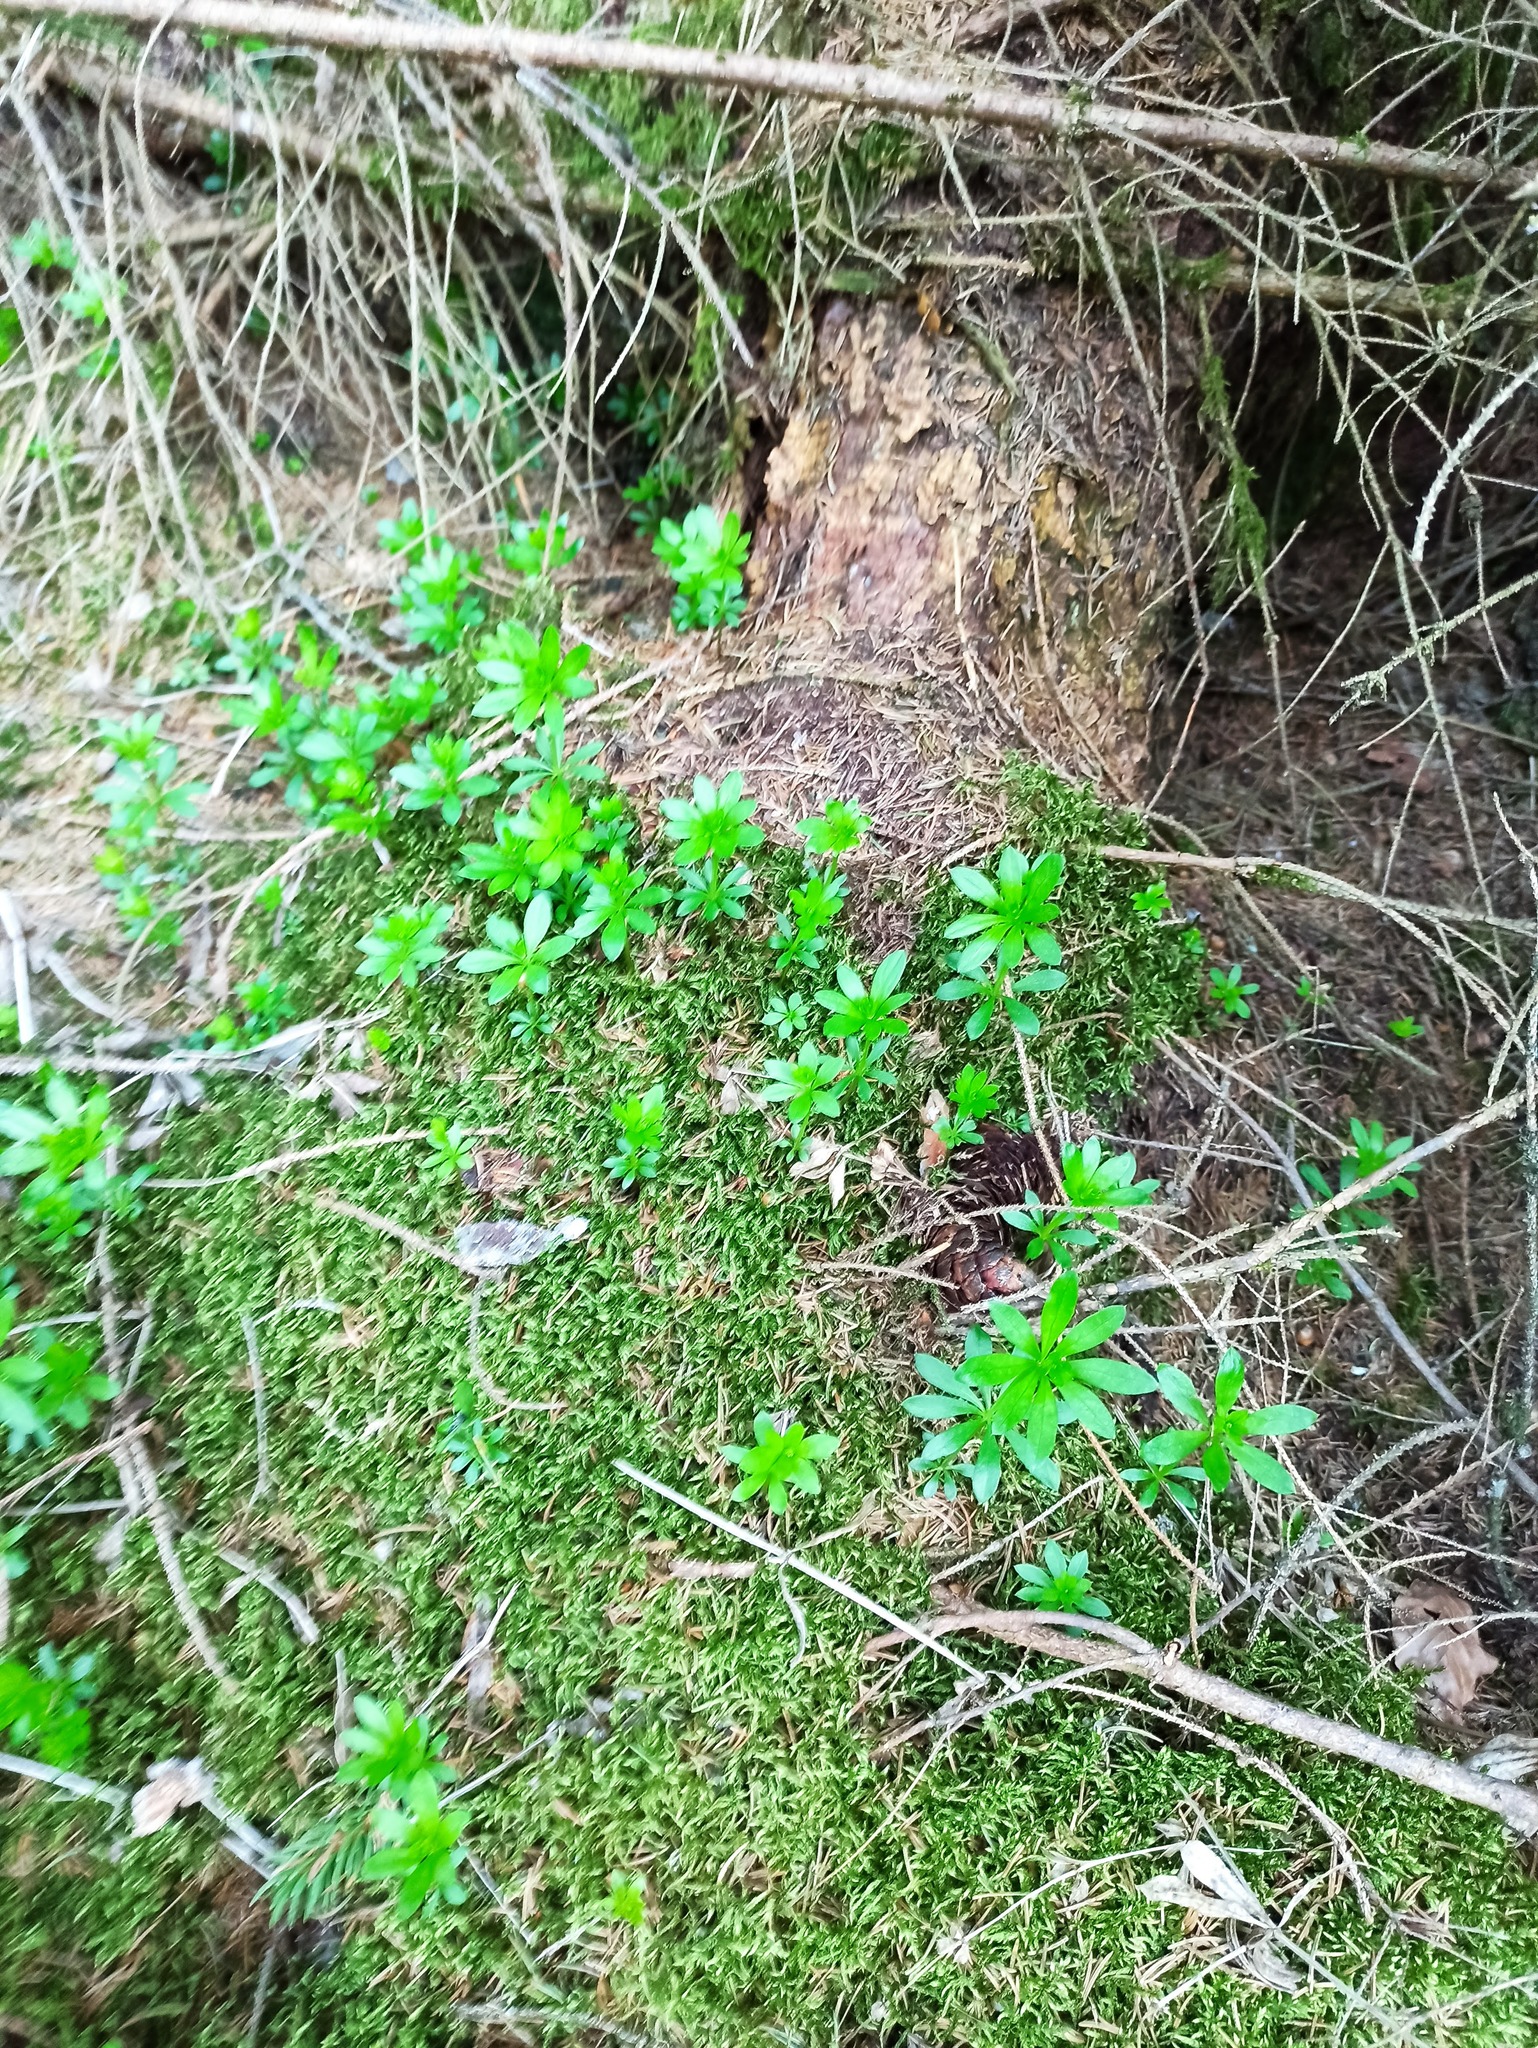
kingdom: Plantae
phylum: Tracheophyta
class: Magnoliopsida
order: Gentianales
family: Rubiaceae
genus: Galium
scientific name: Galium odoratum
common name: Sweet woodruff
